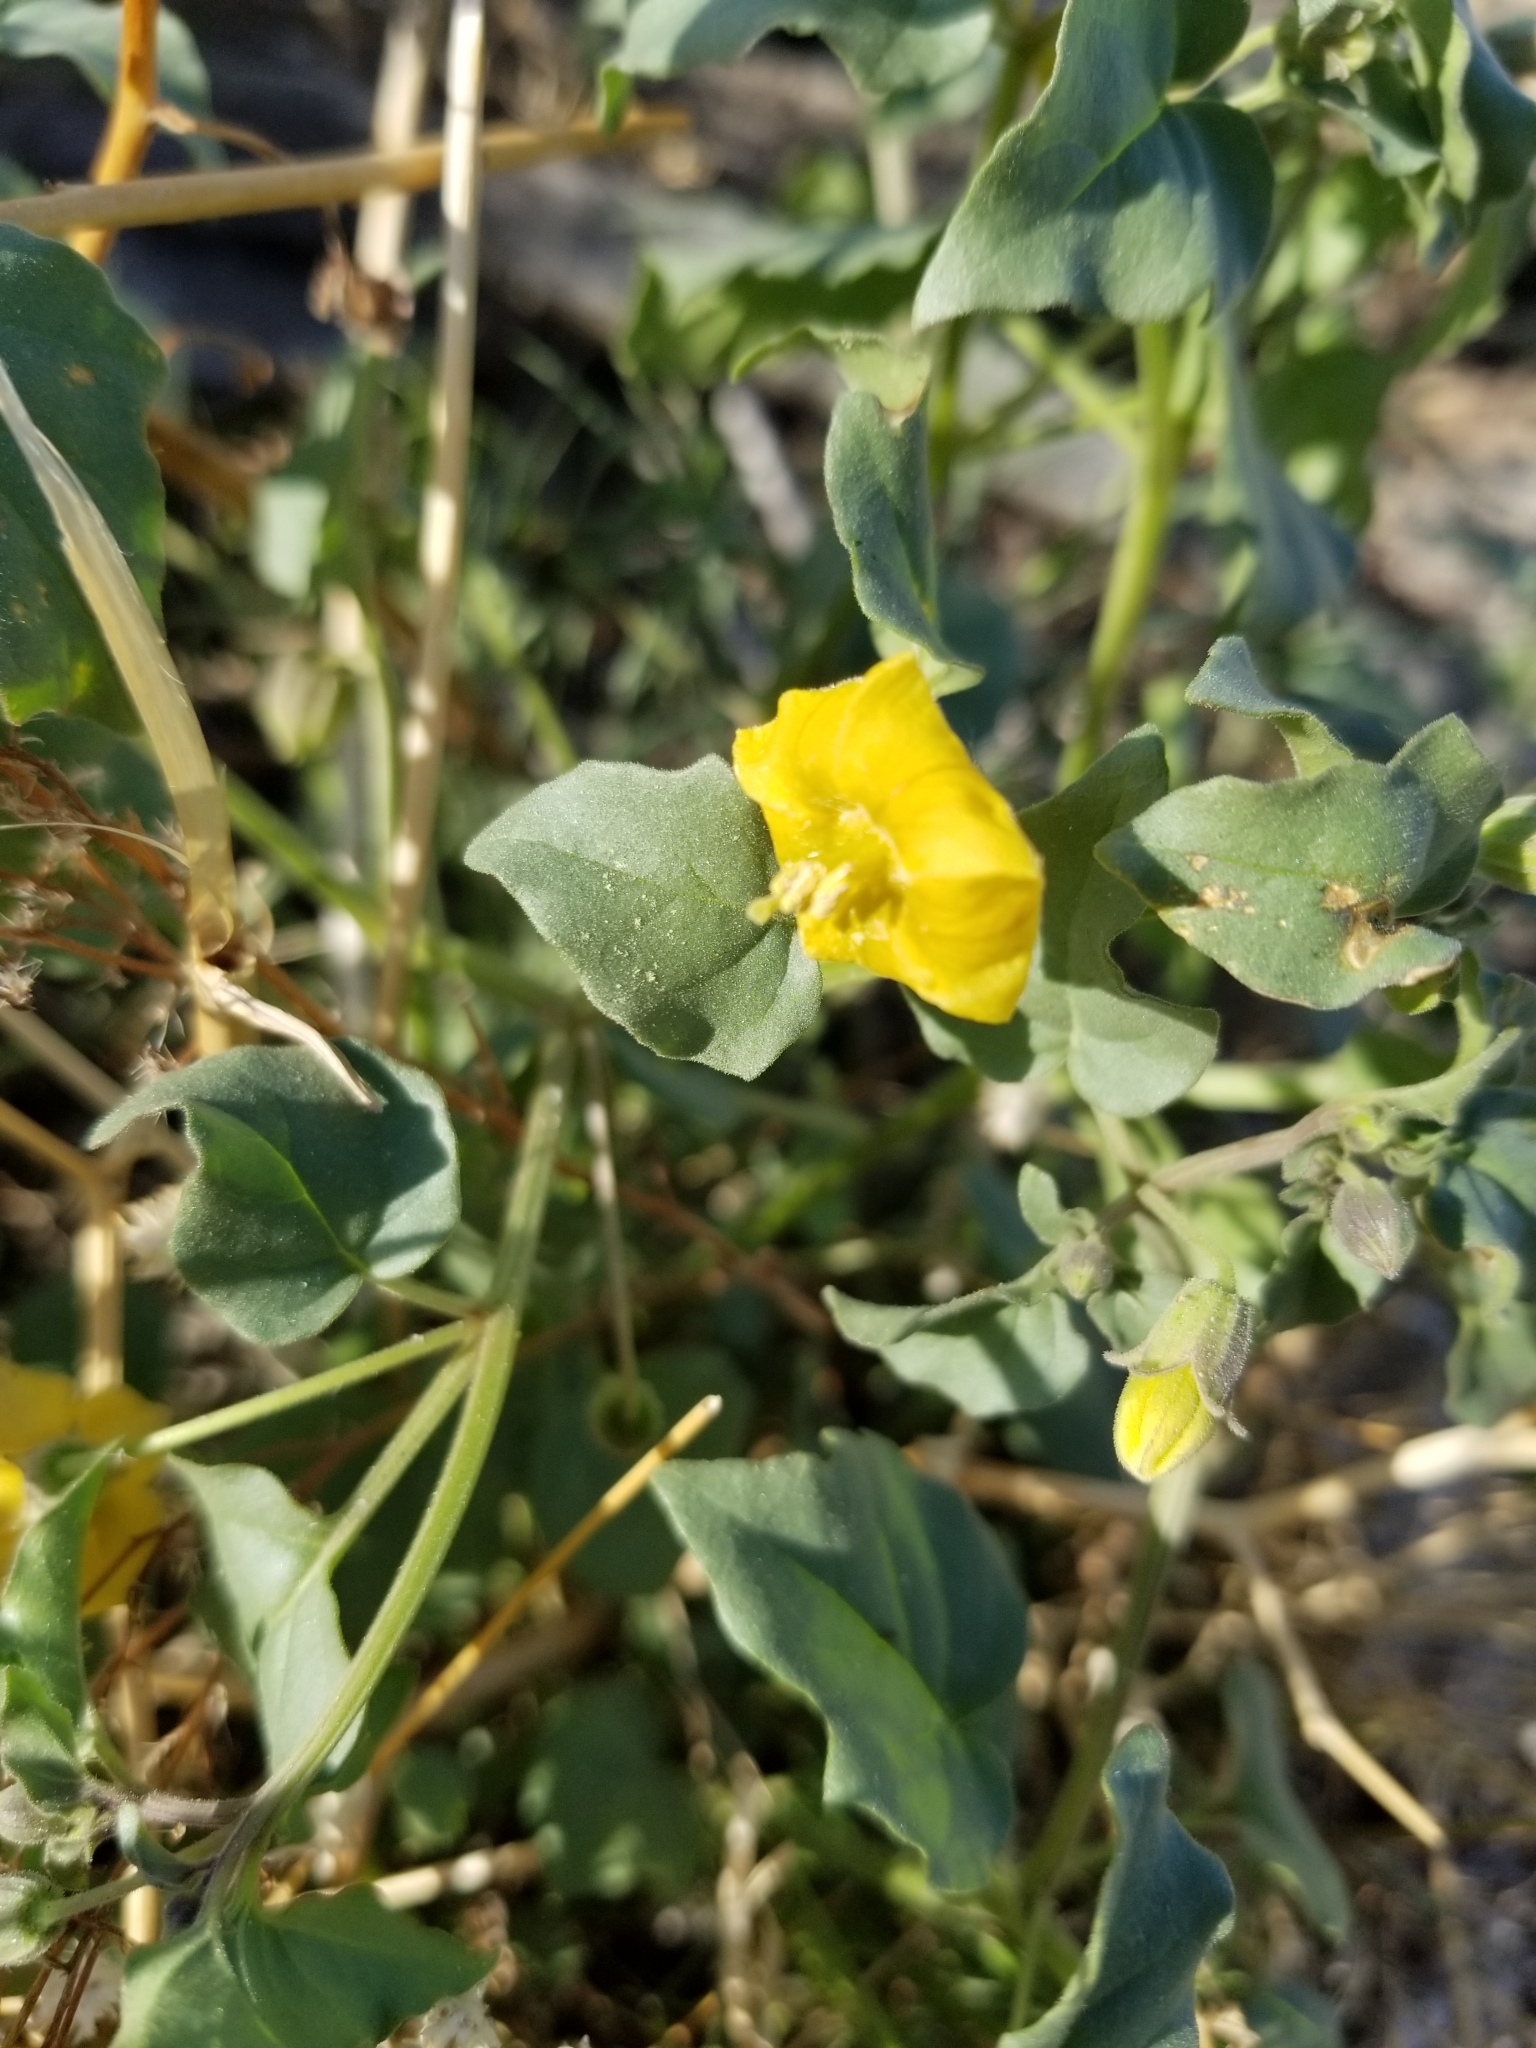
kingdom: Plantae
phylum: Tracheophyta
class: Magnoliopsida
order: Solanales
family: Solanaceae
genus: Physalis
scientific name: Physalis crassifolia
